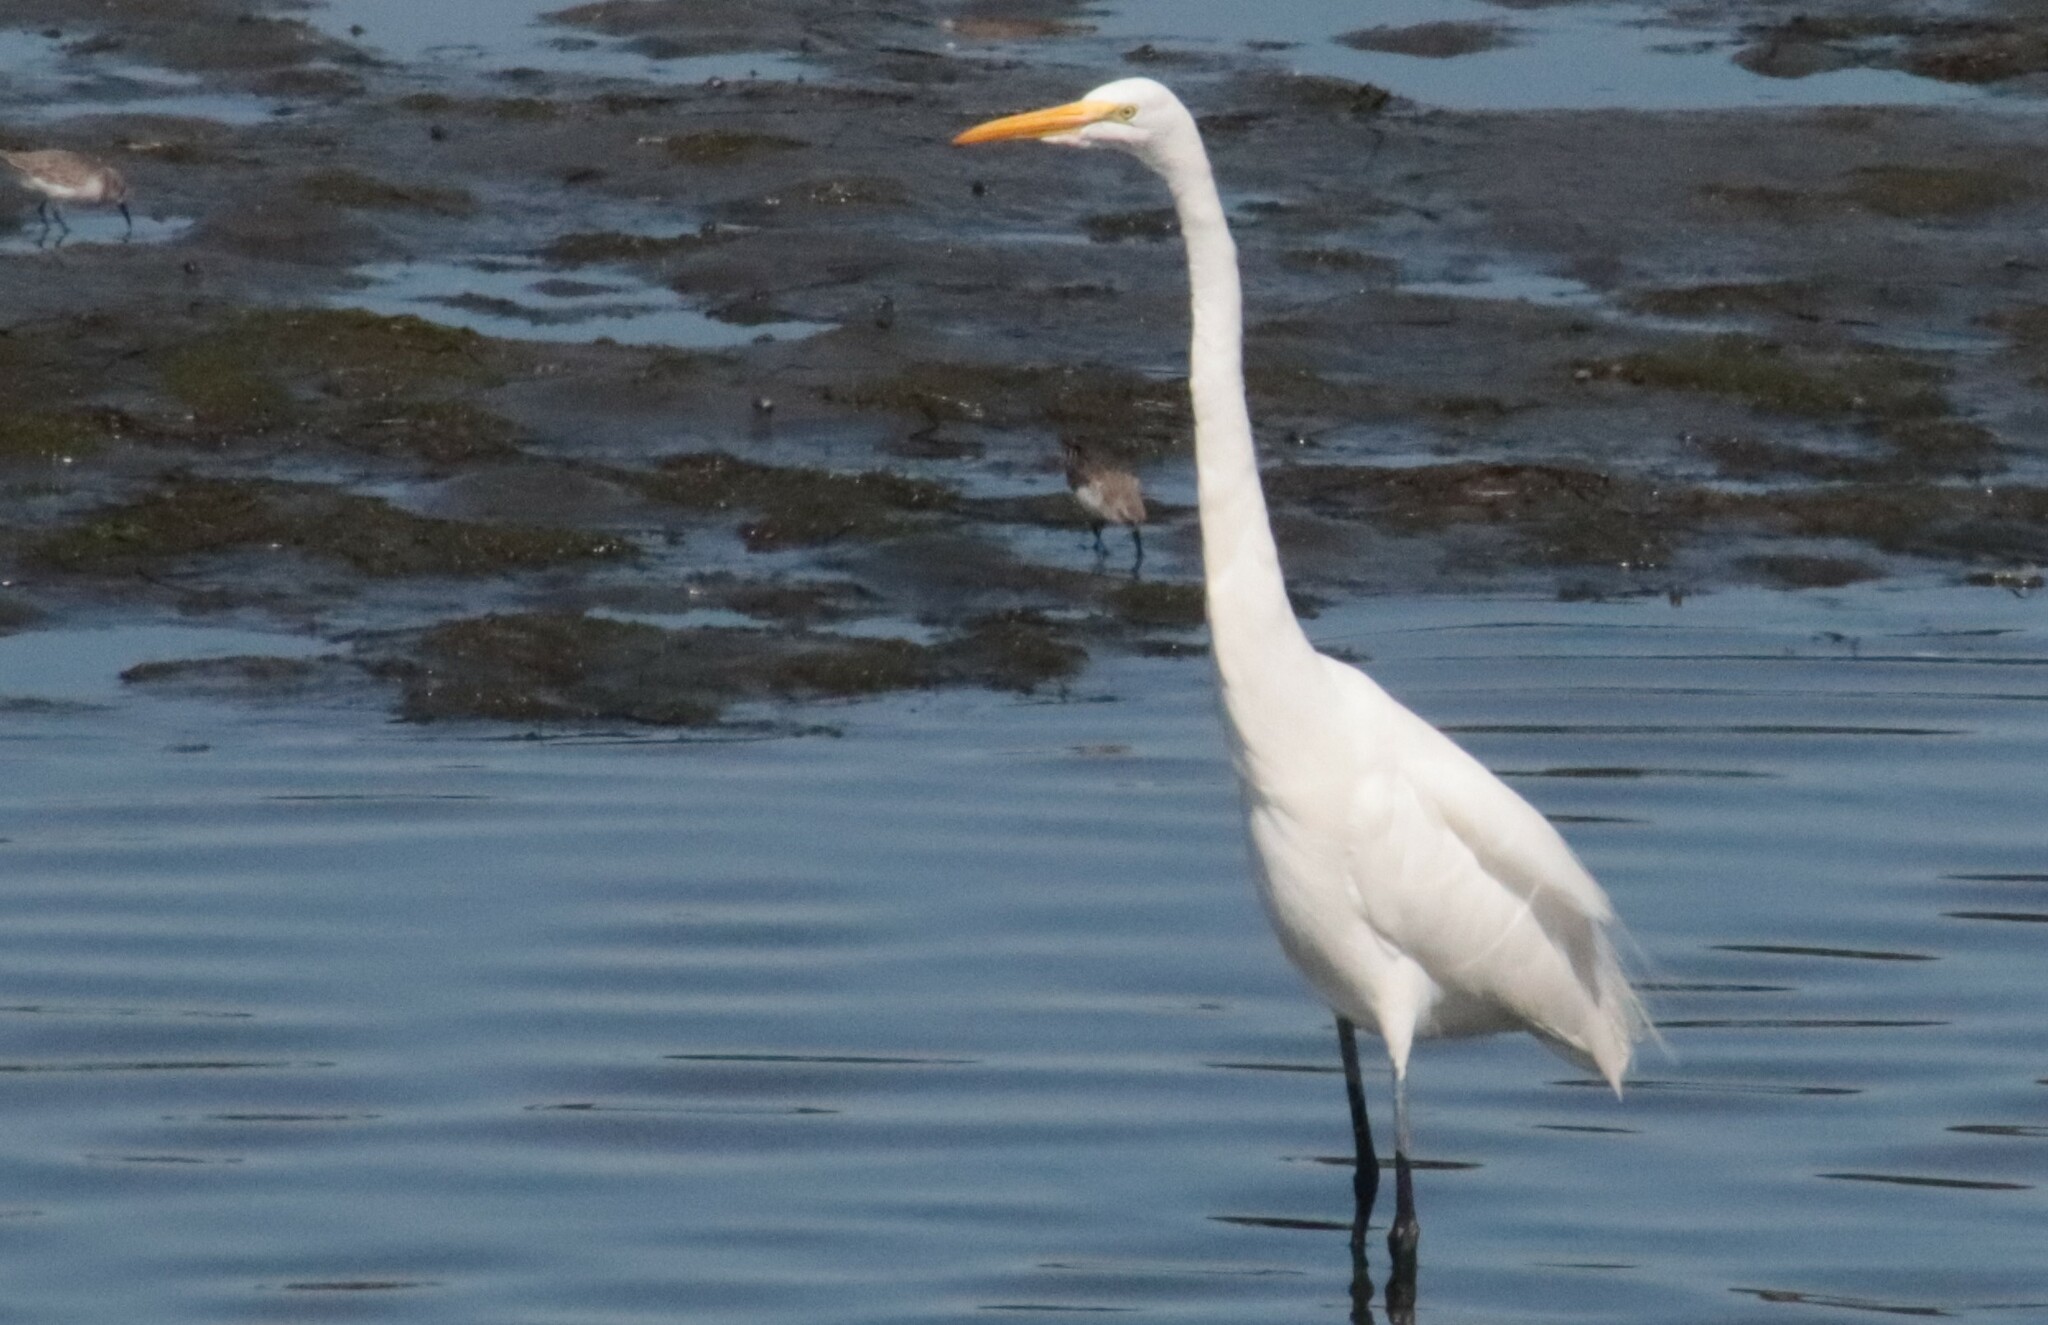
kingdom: Animalia
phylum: Chordata
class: Aves
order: Pelecaniformes
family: Ardeidae
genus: Ardea
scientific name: Ardea alba
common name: Great egret
